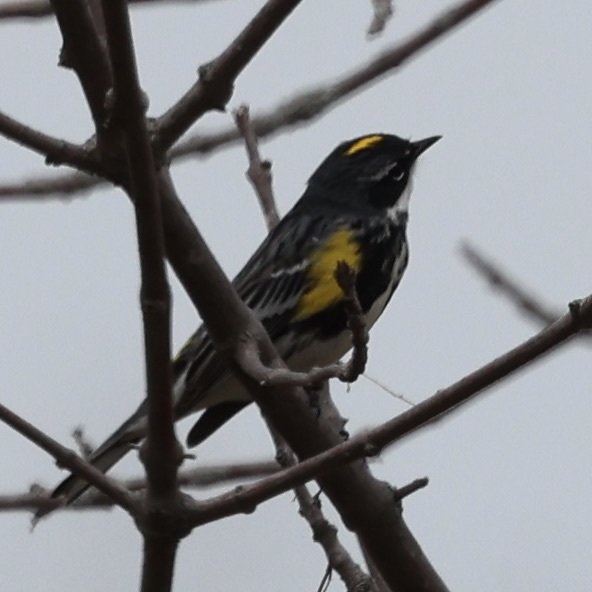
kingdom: Animalia
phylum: Chordata
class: Aves
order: Passeriformes
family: Parulidae
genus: Setophaga
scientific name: Setophaga coronata
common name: Myrtle warbler
